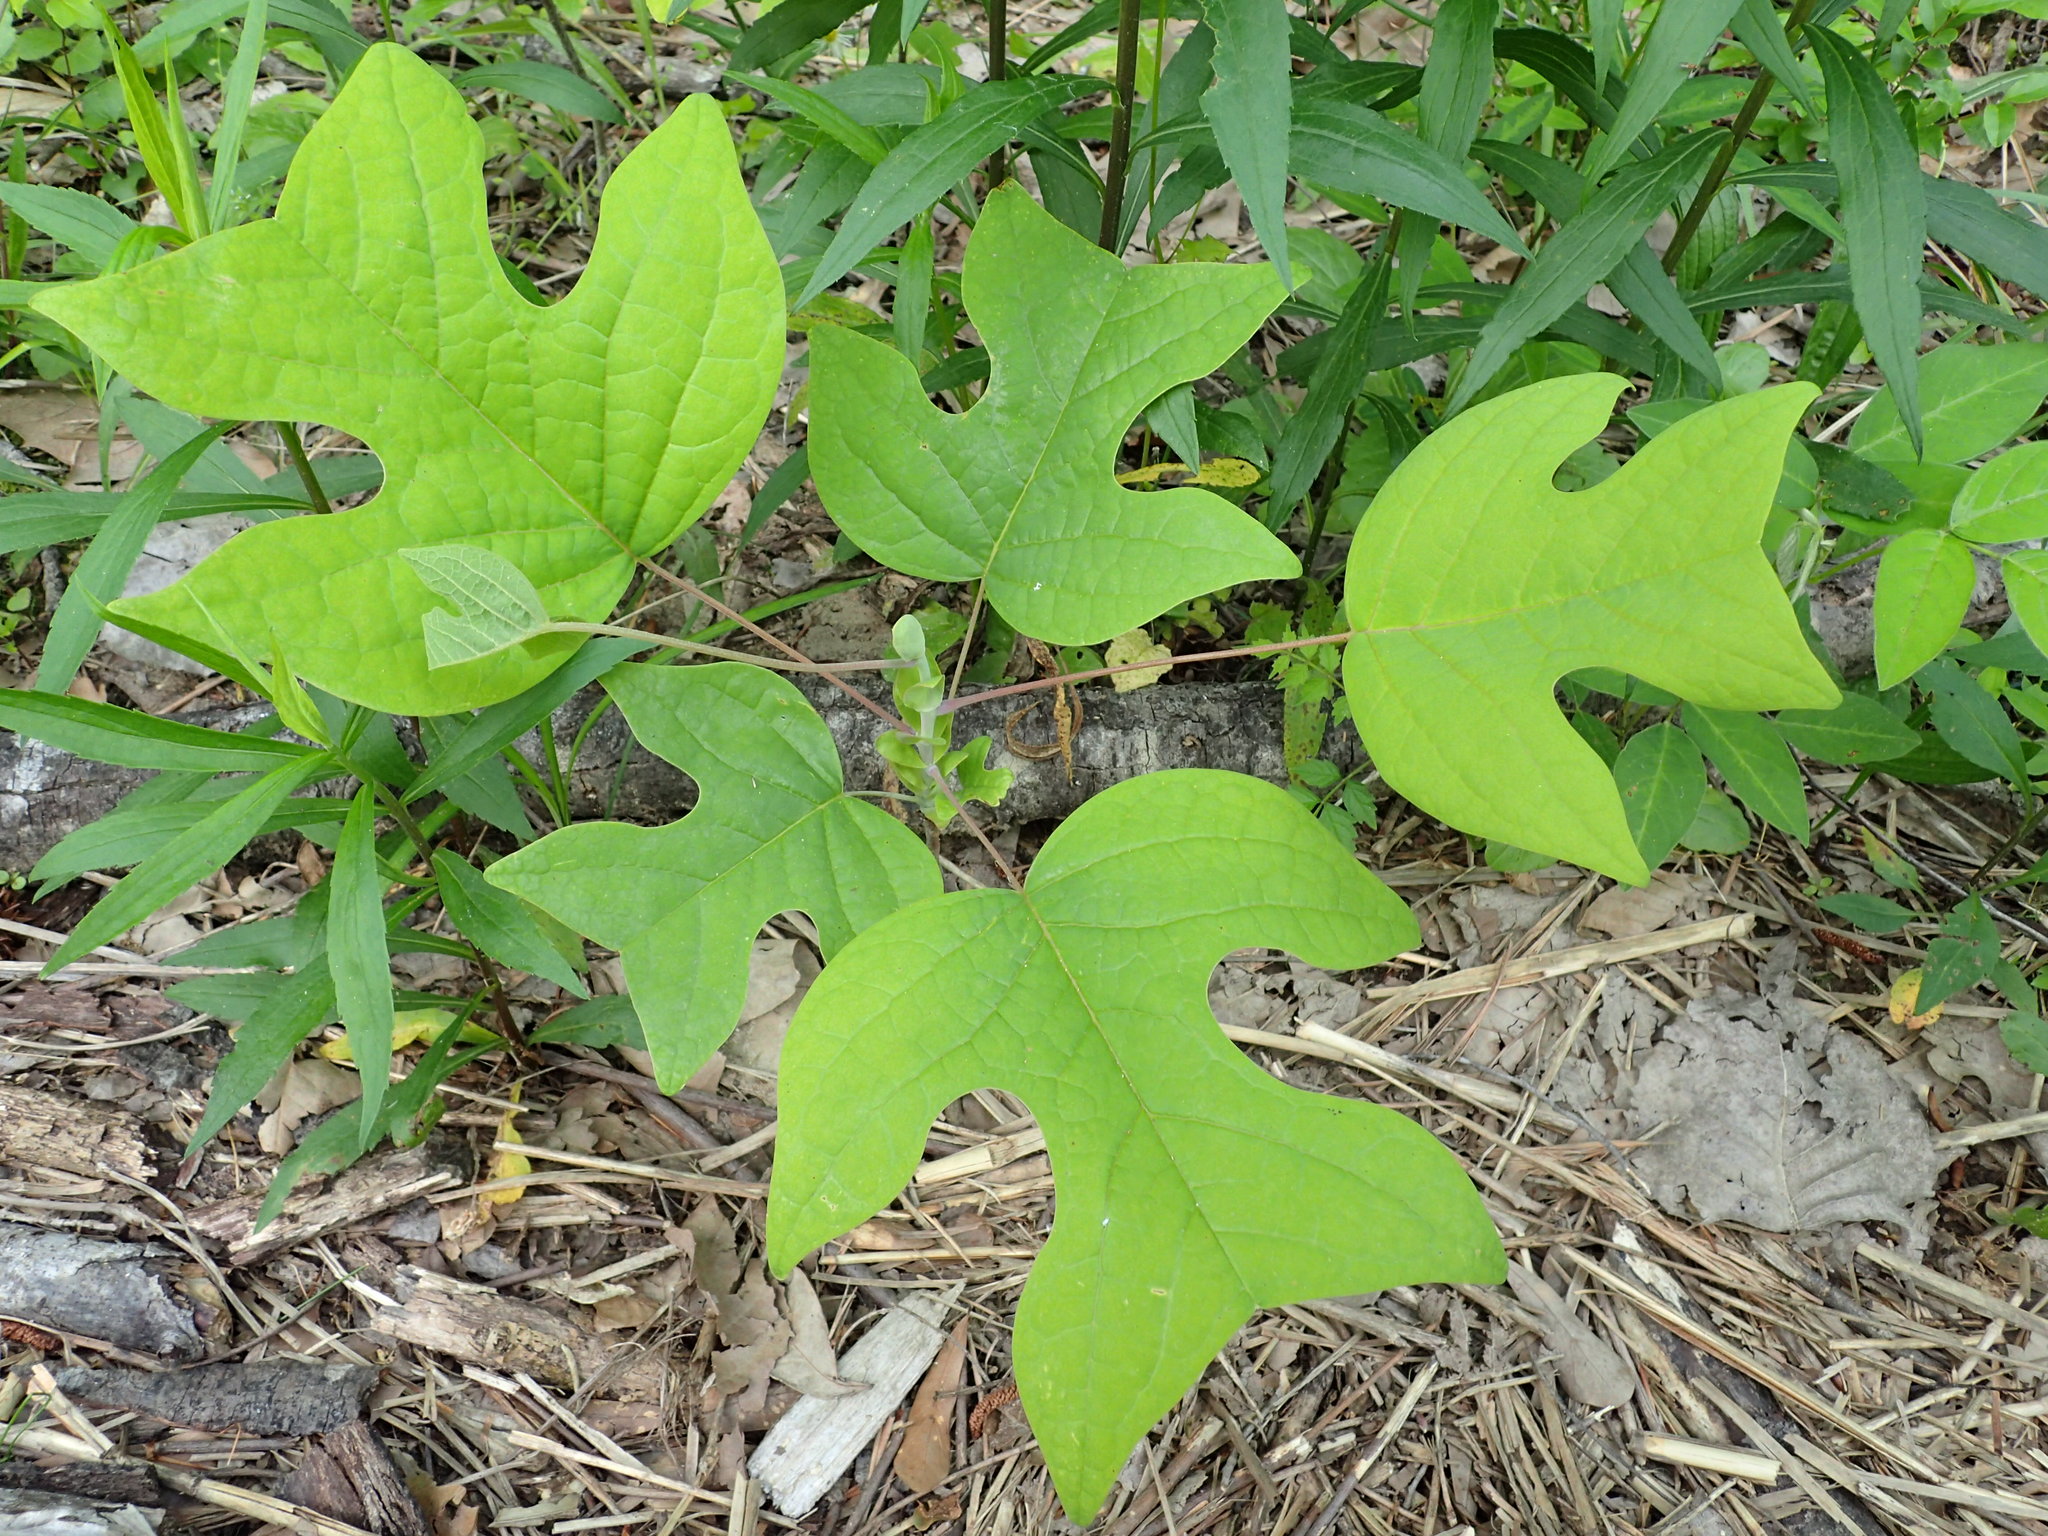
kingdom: Plantae
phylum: Tracheophyta
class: Magnoliopsida
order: Magnoliales
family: Magnoliaceae
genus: Liriodendron
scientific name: Liriodendron tulipifera
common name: Tulip tree
